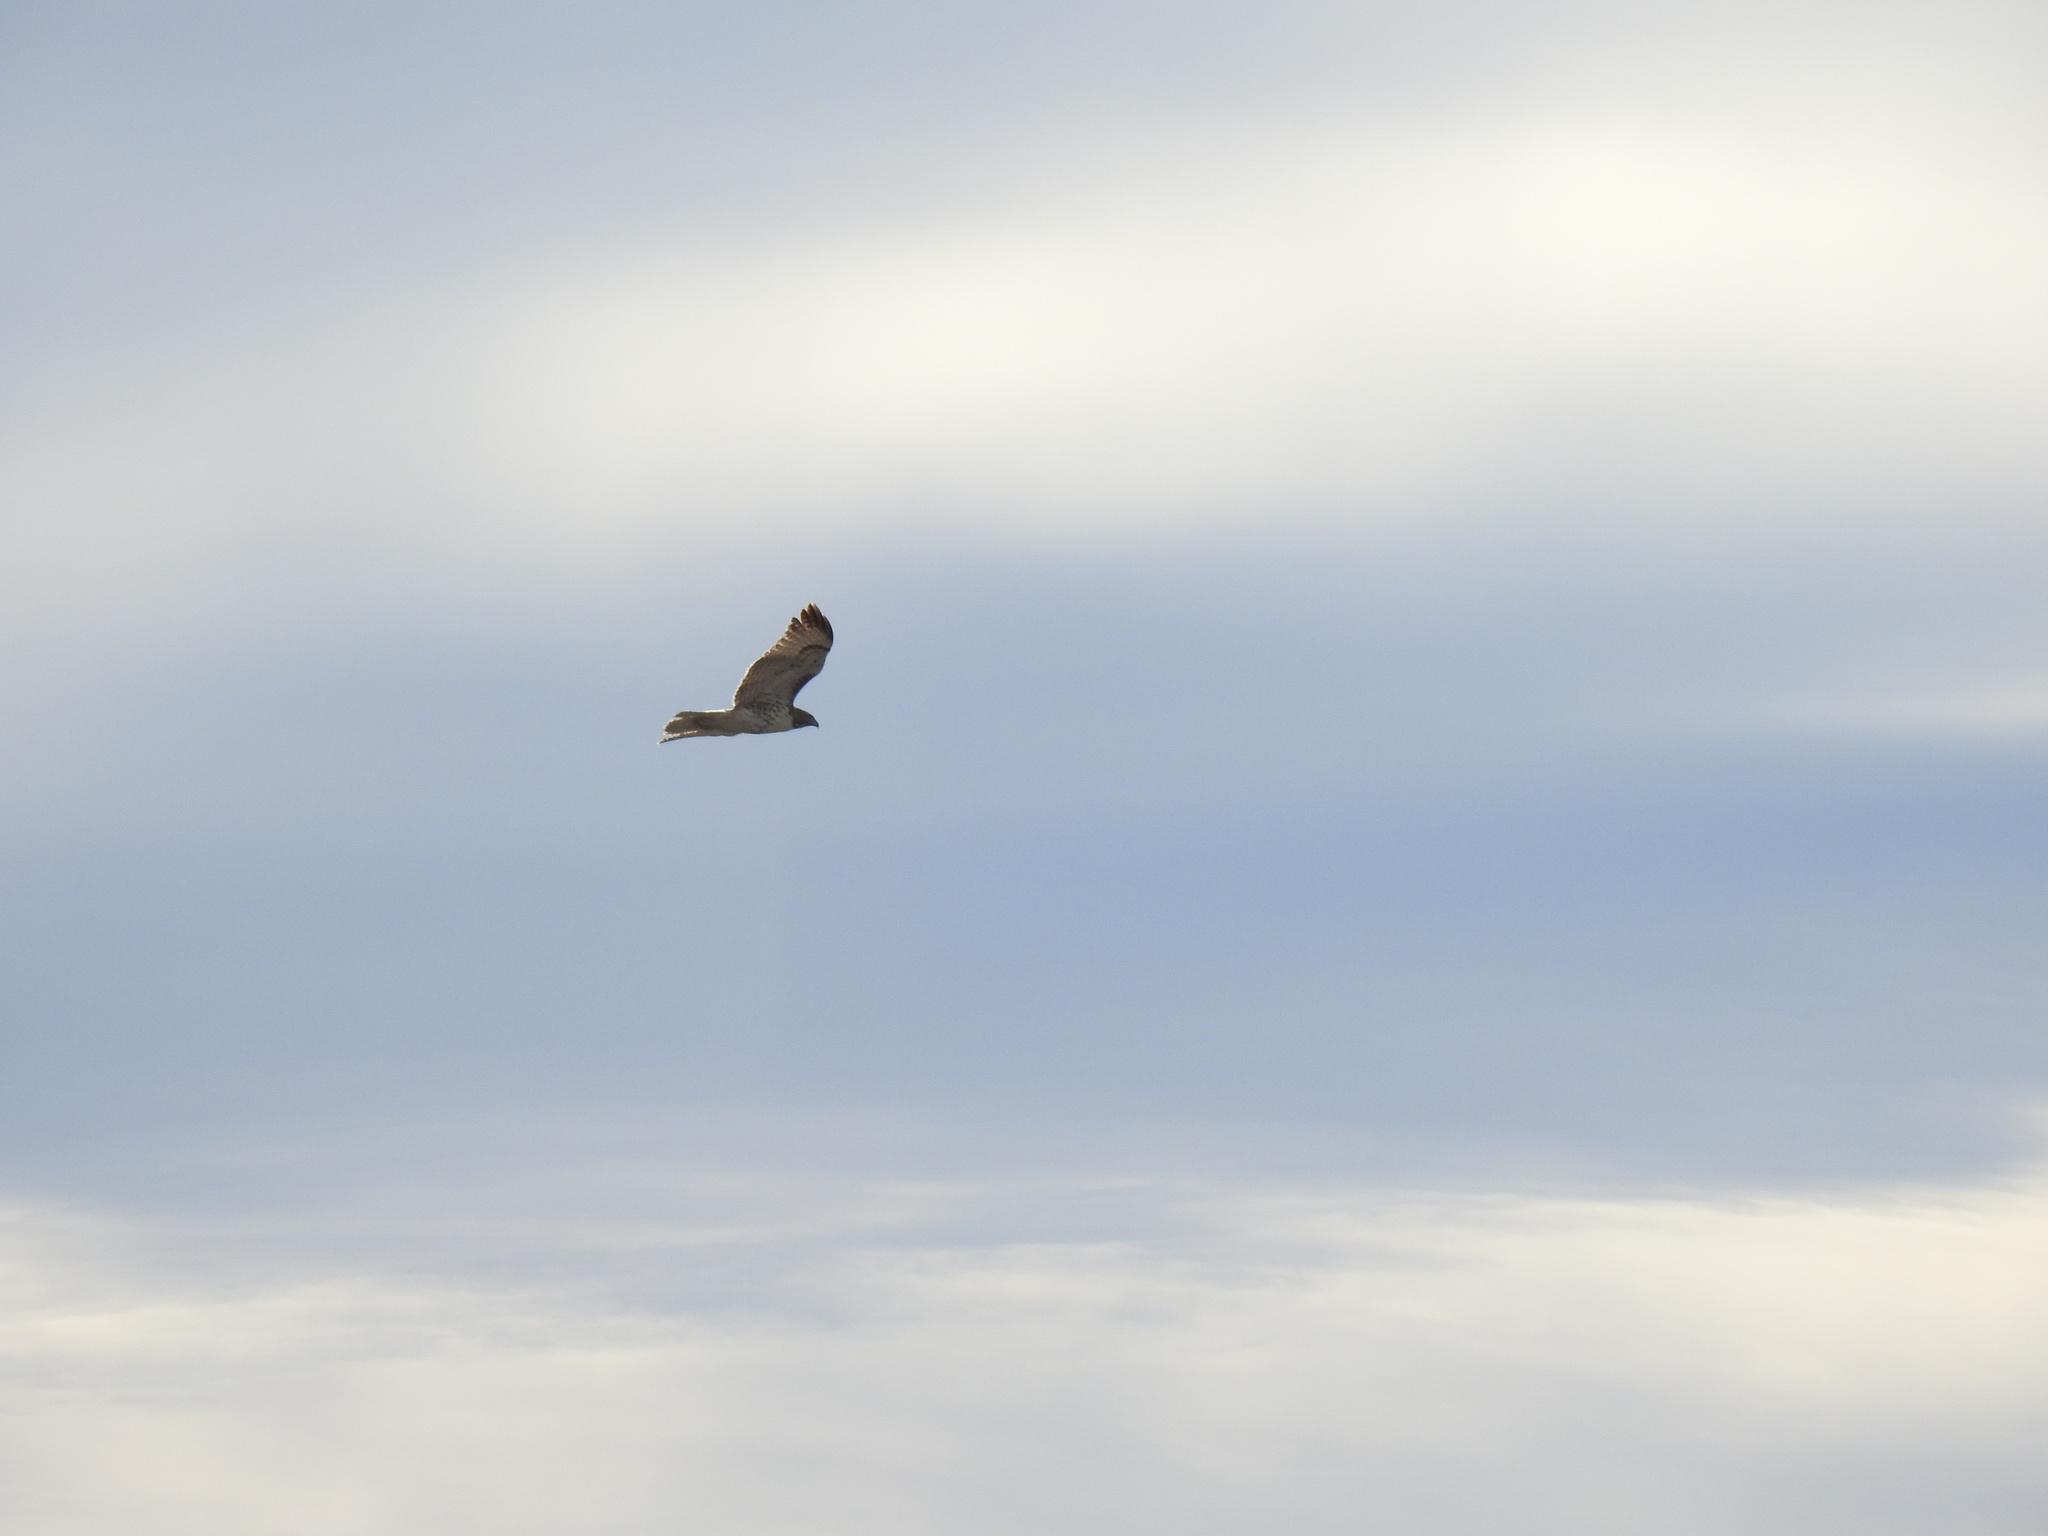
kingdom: Animalia
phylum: Chordata
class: Aves
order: Accipitriformes
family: Accipitridae
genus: Buteo
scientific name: Buteo jamaicensis
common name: Red-tailed hawk
